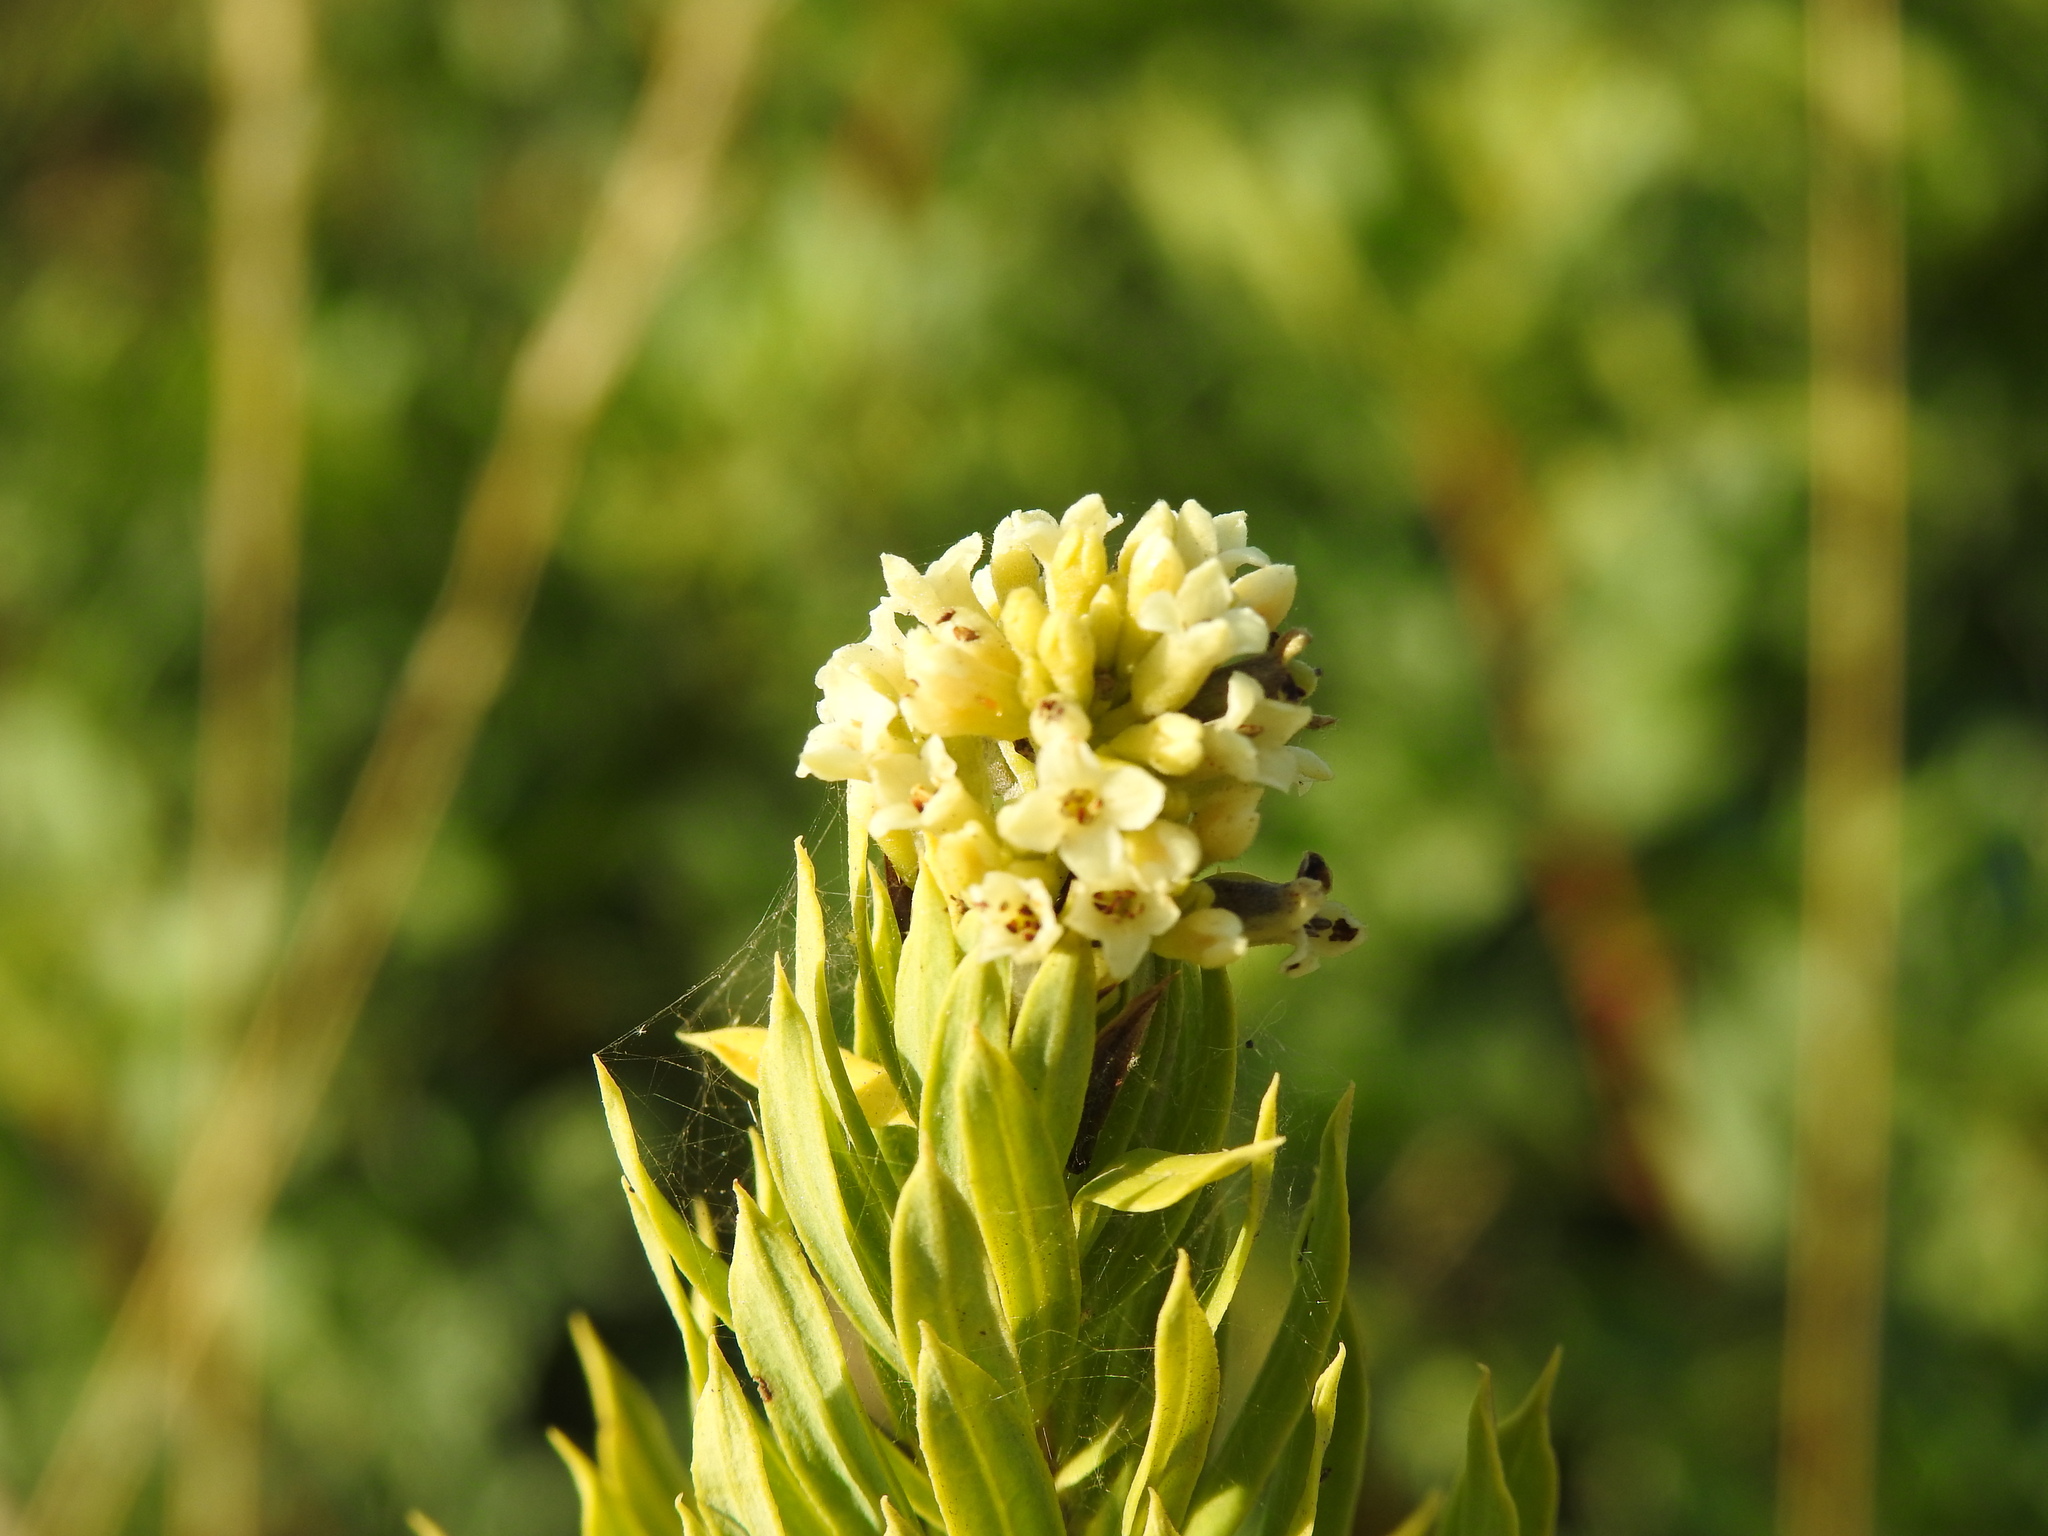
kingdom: Plantae
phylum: Tracheophyta
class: Magnoliopsida
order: Malvales
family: Thymelaeaceae
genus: Daphne
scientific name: Daphne gnidium
